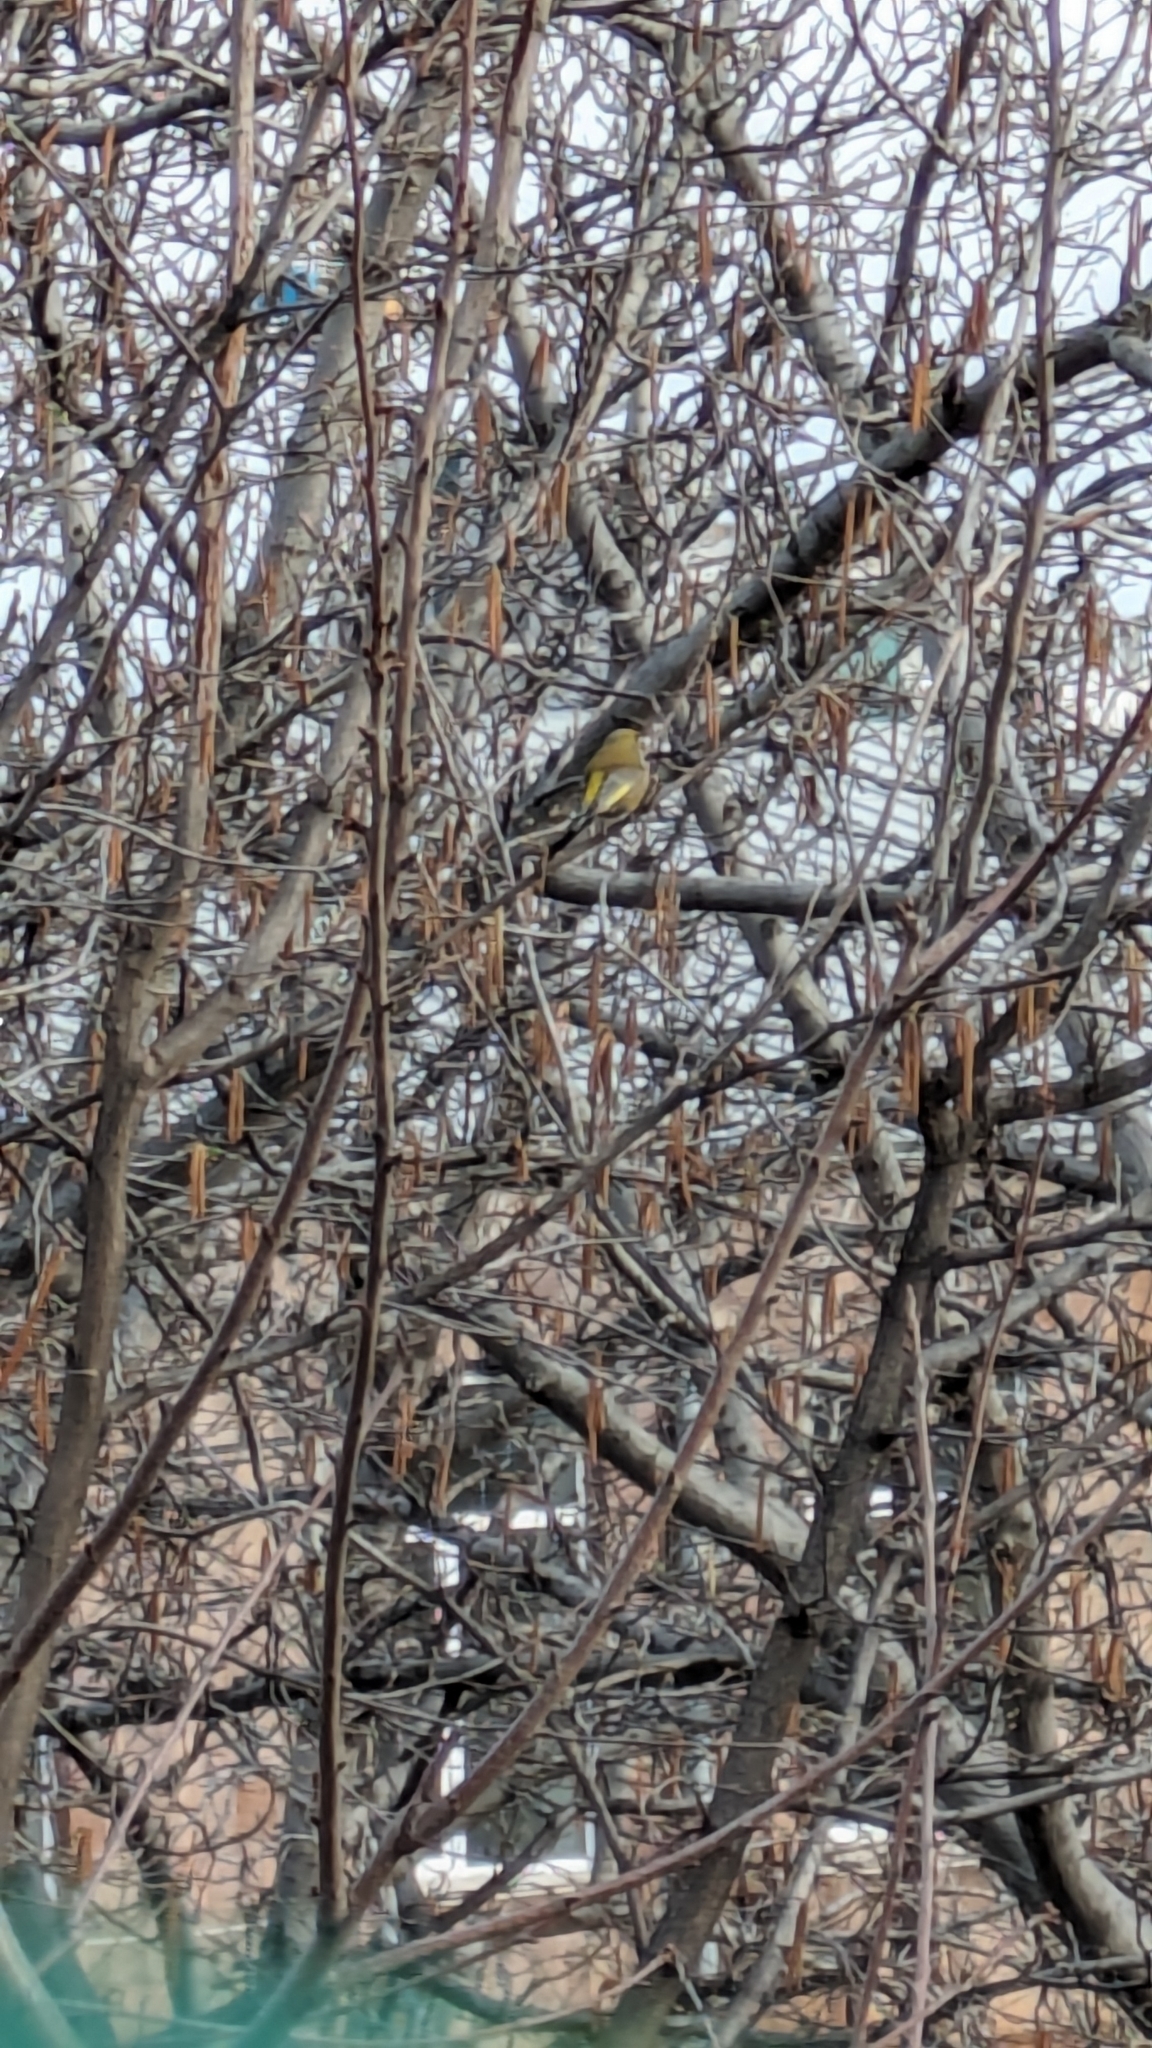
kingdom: Plantae
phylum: Tracheophyta
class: Liliopsida
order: Poales
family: Poaceae
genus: Chloris
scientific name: Chloris chloris
